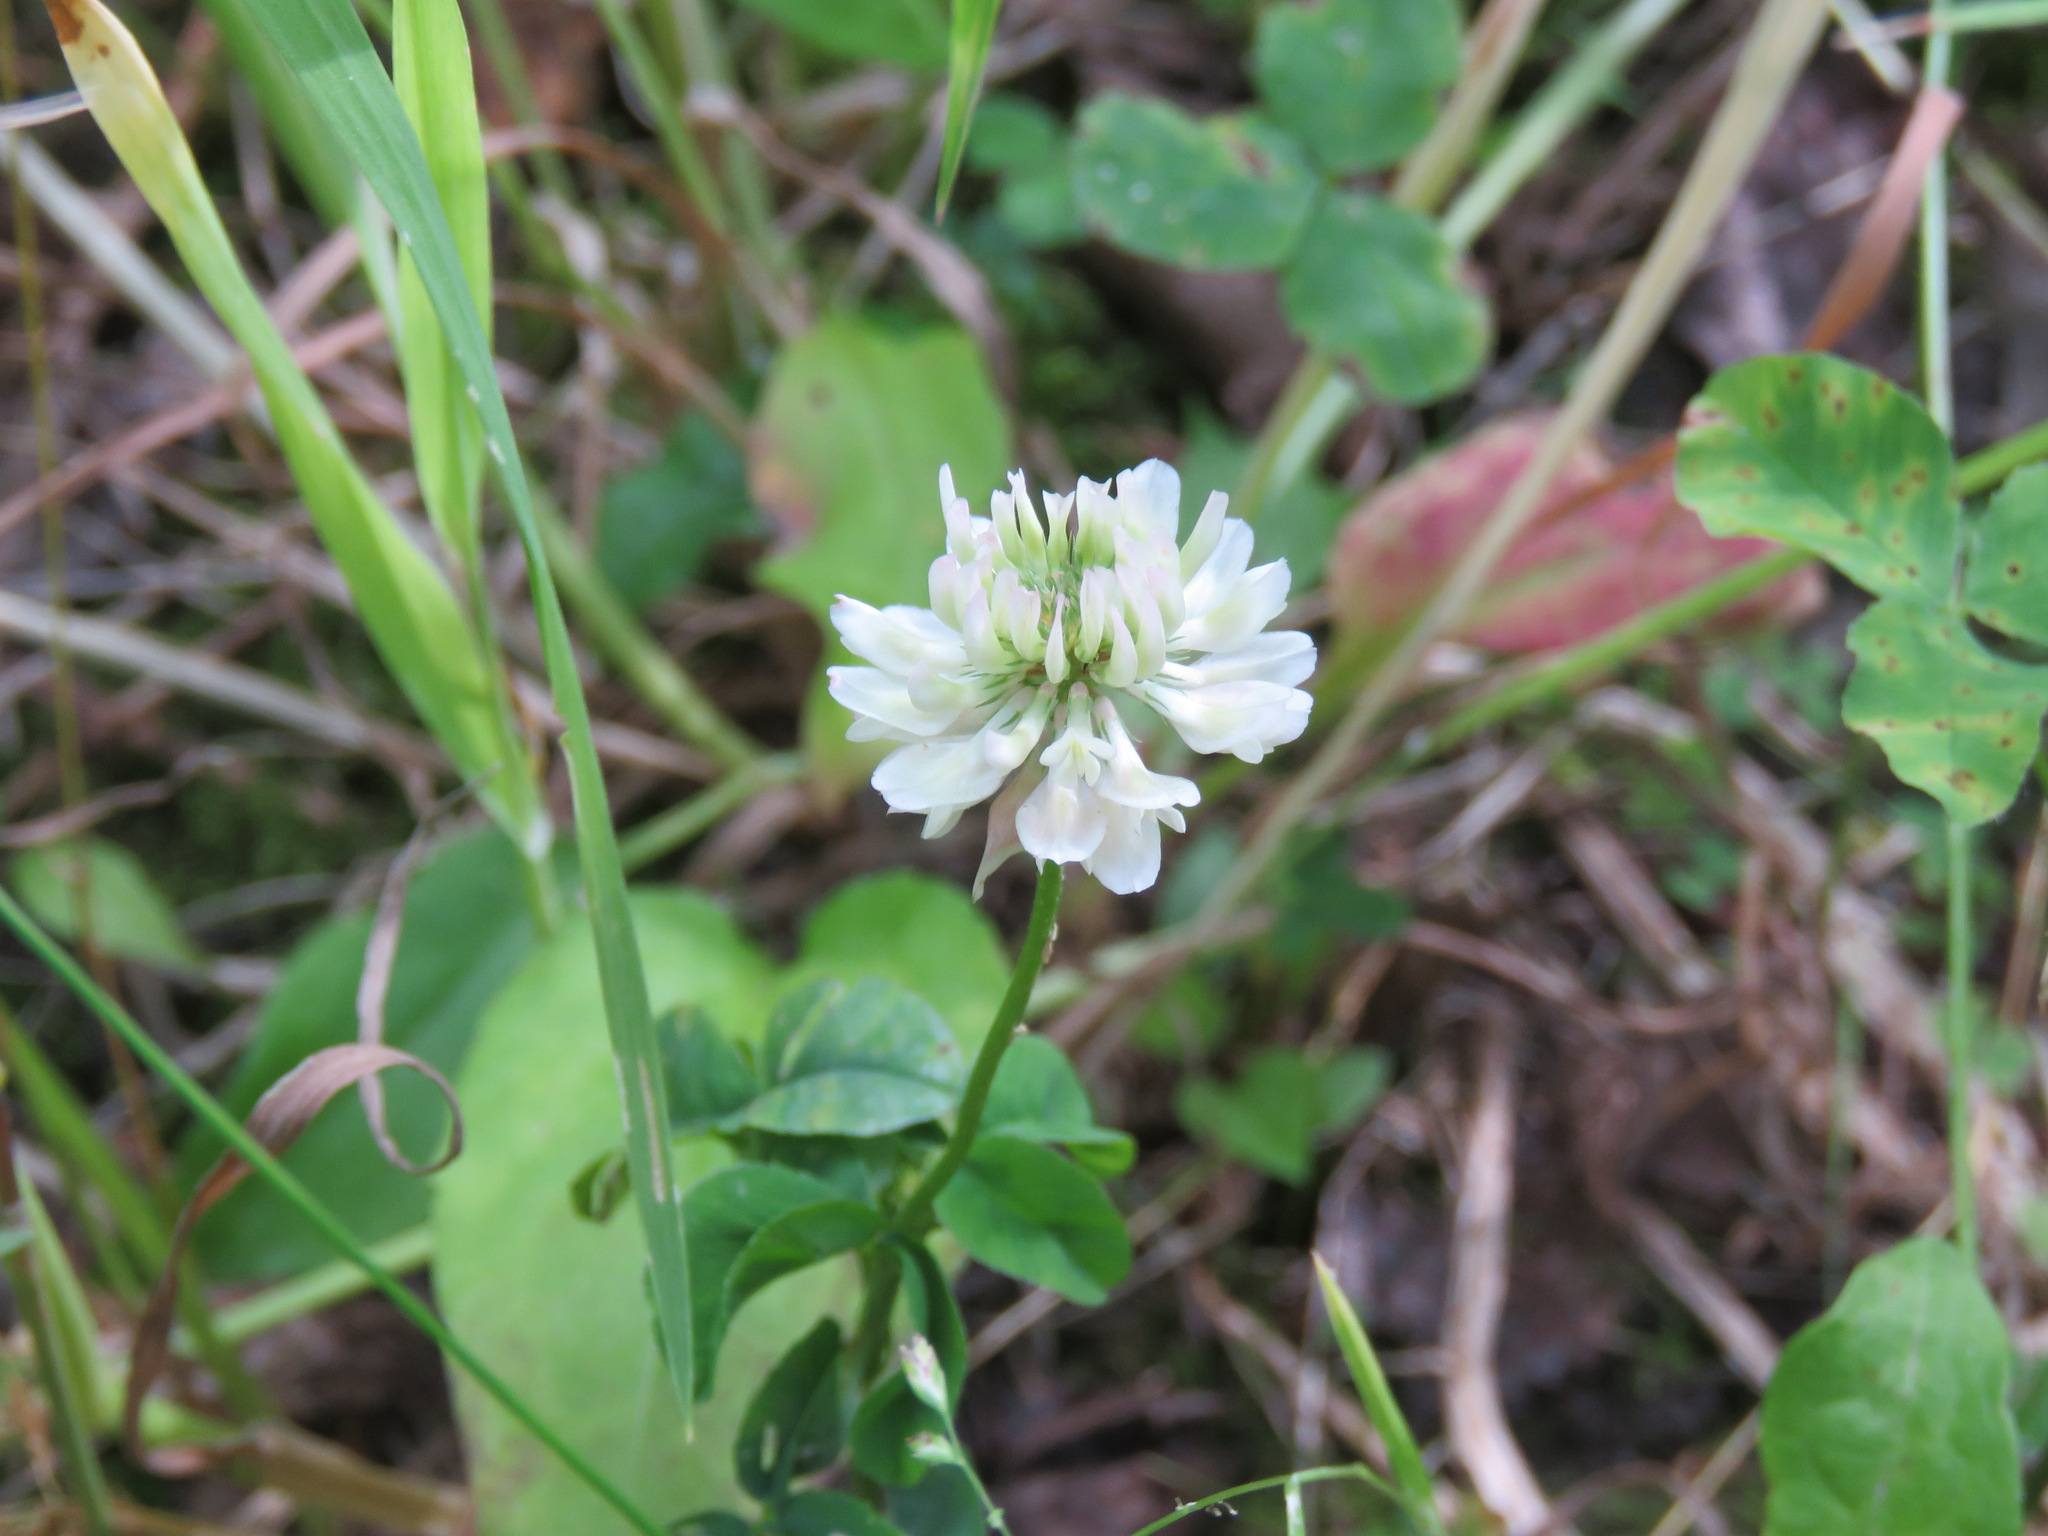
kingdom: Plantae
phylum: Tracheophyta
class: Magnoliopsida
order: Fabales
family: Fabaceae
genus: Trifolium
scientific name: Trifolium repens
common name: White clover
